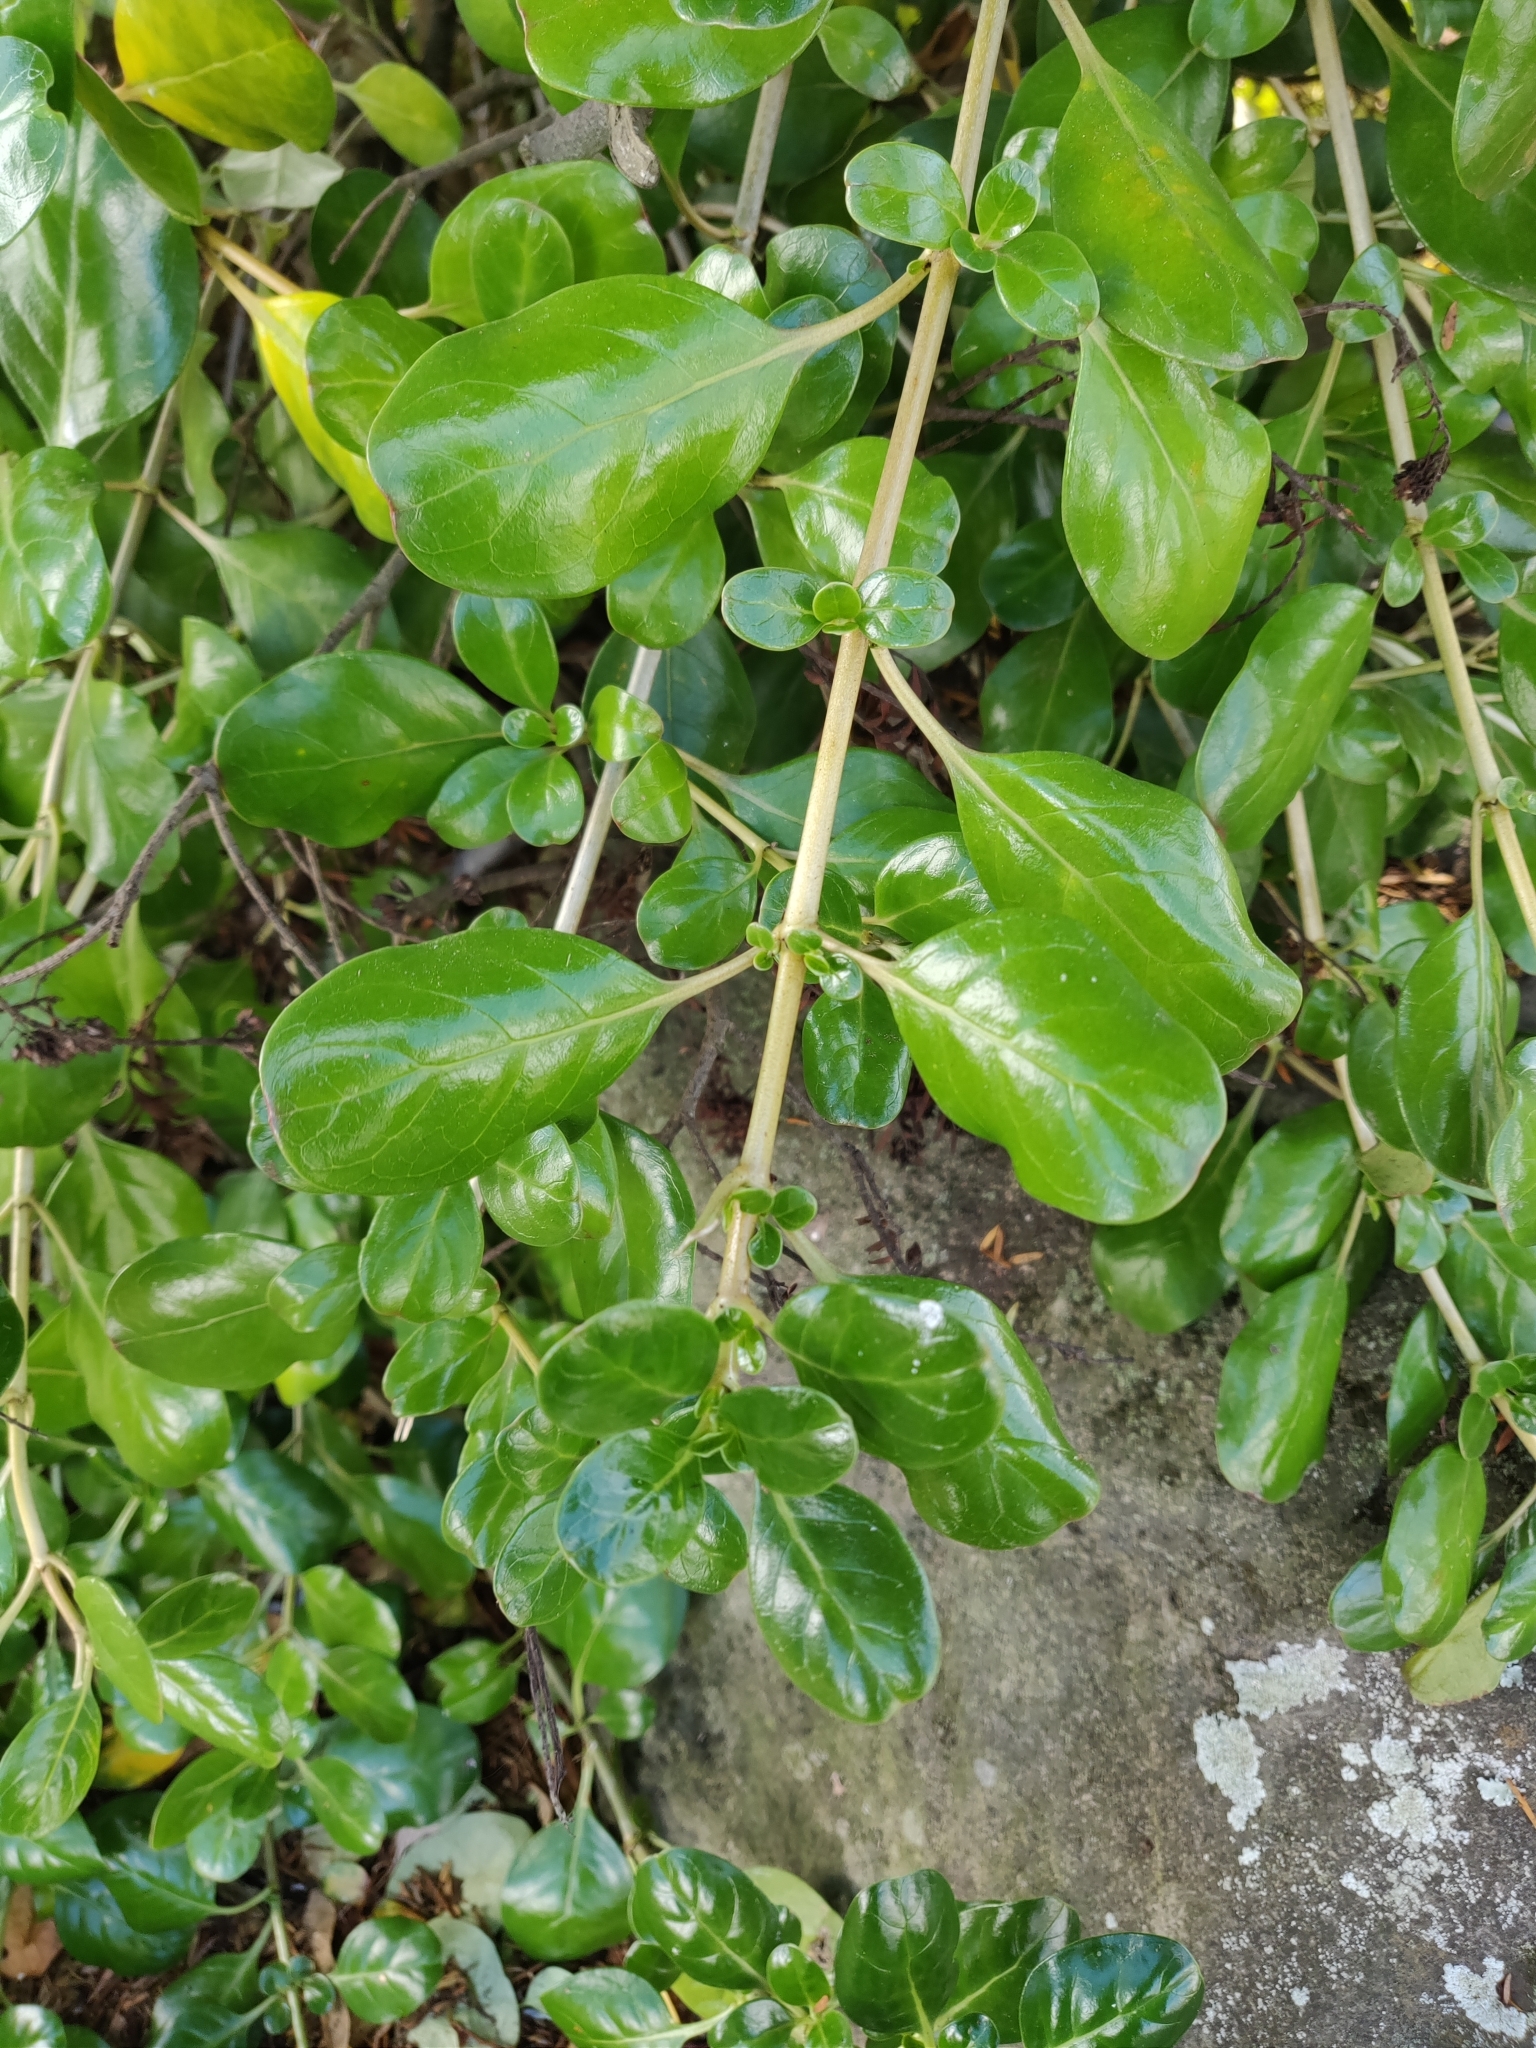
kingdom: Plantae
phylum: Tracheophyta
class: Magnoliopsida
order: Gentianales
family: Rubiaceae
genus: Coprosma
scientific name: Coprosma repens
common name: Tree bedstraw
